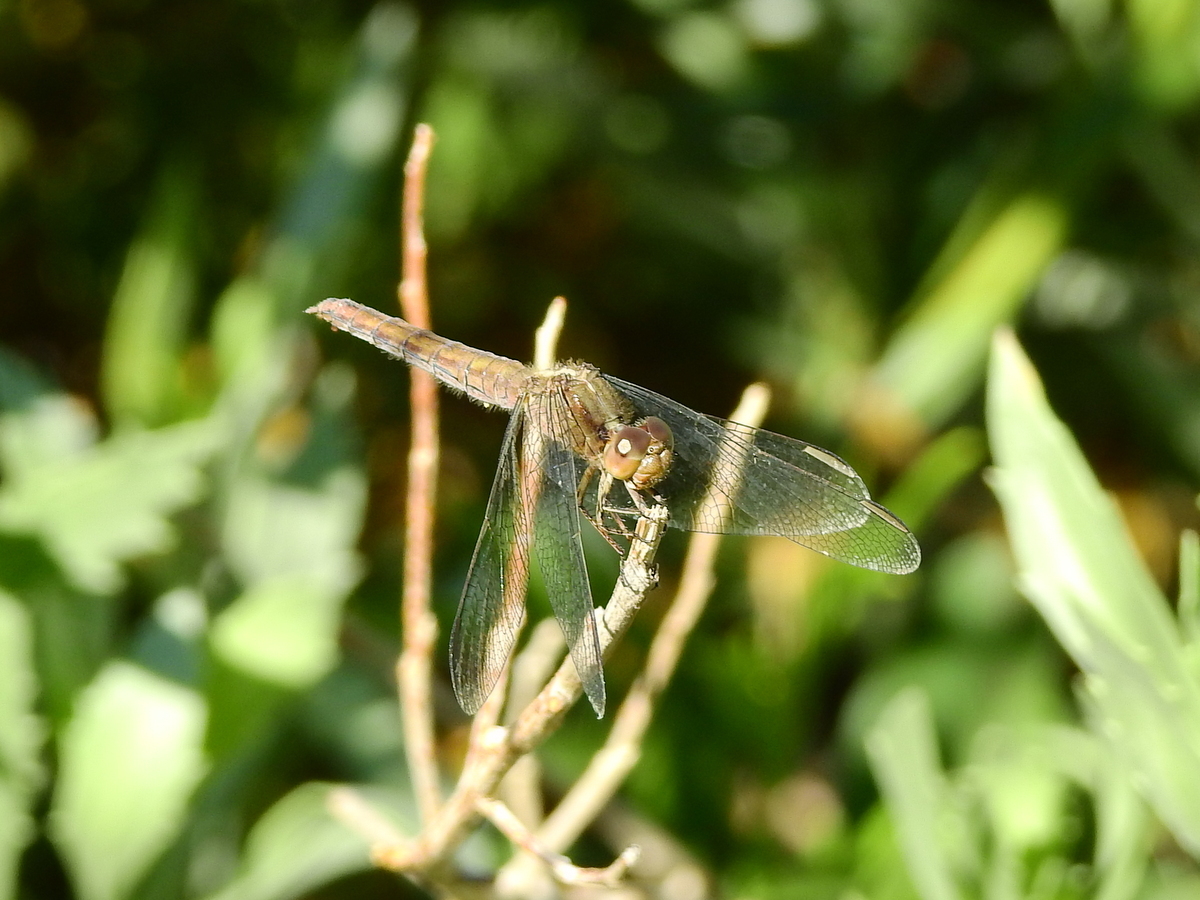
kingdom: Animalia
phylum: Arthropoda
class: Insecta
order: Odonata
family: Libellulidae
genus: Erythrodiplax
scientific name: Erythrodiplax connata
